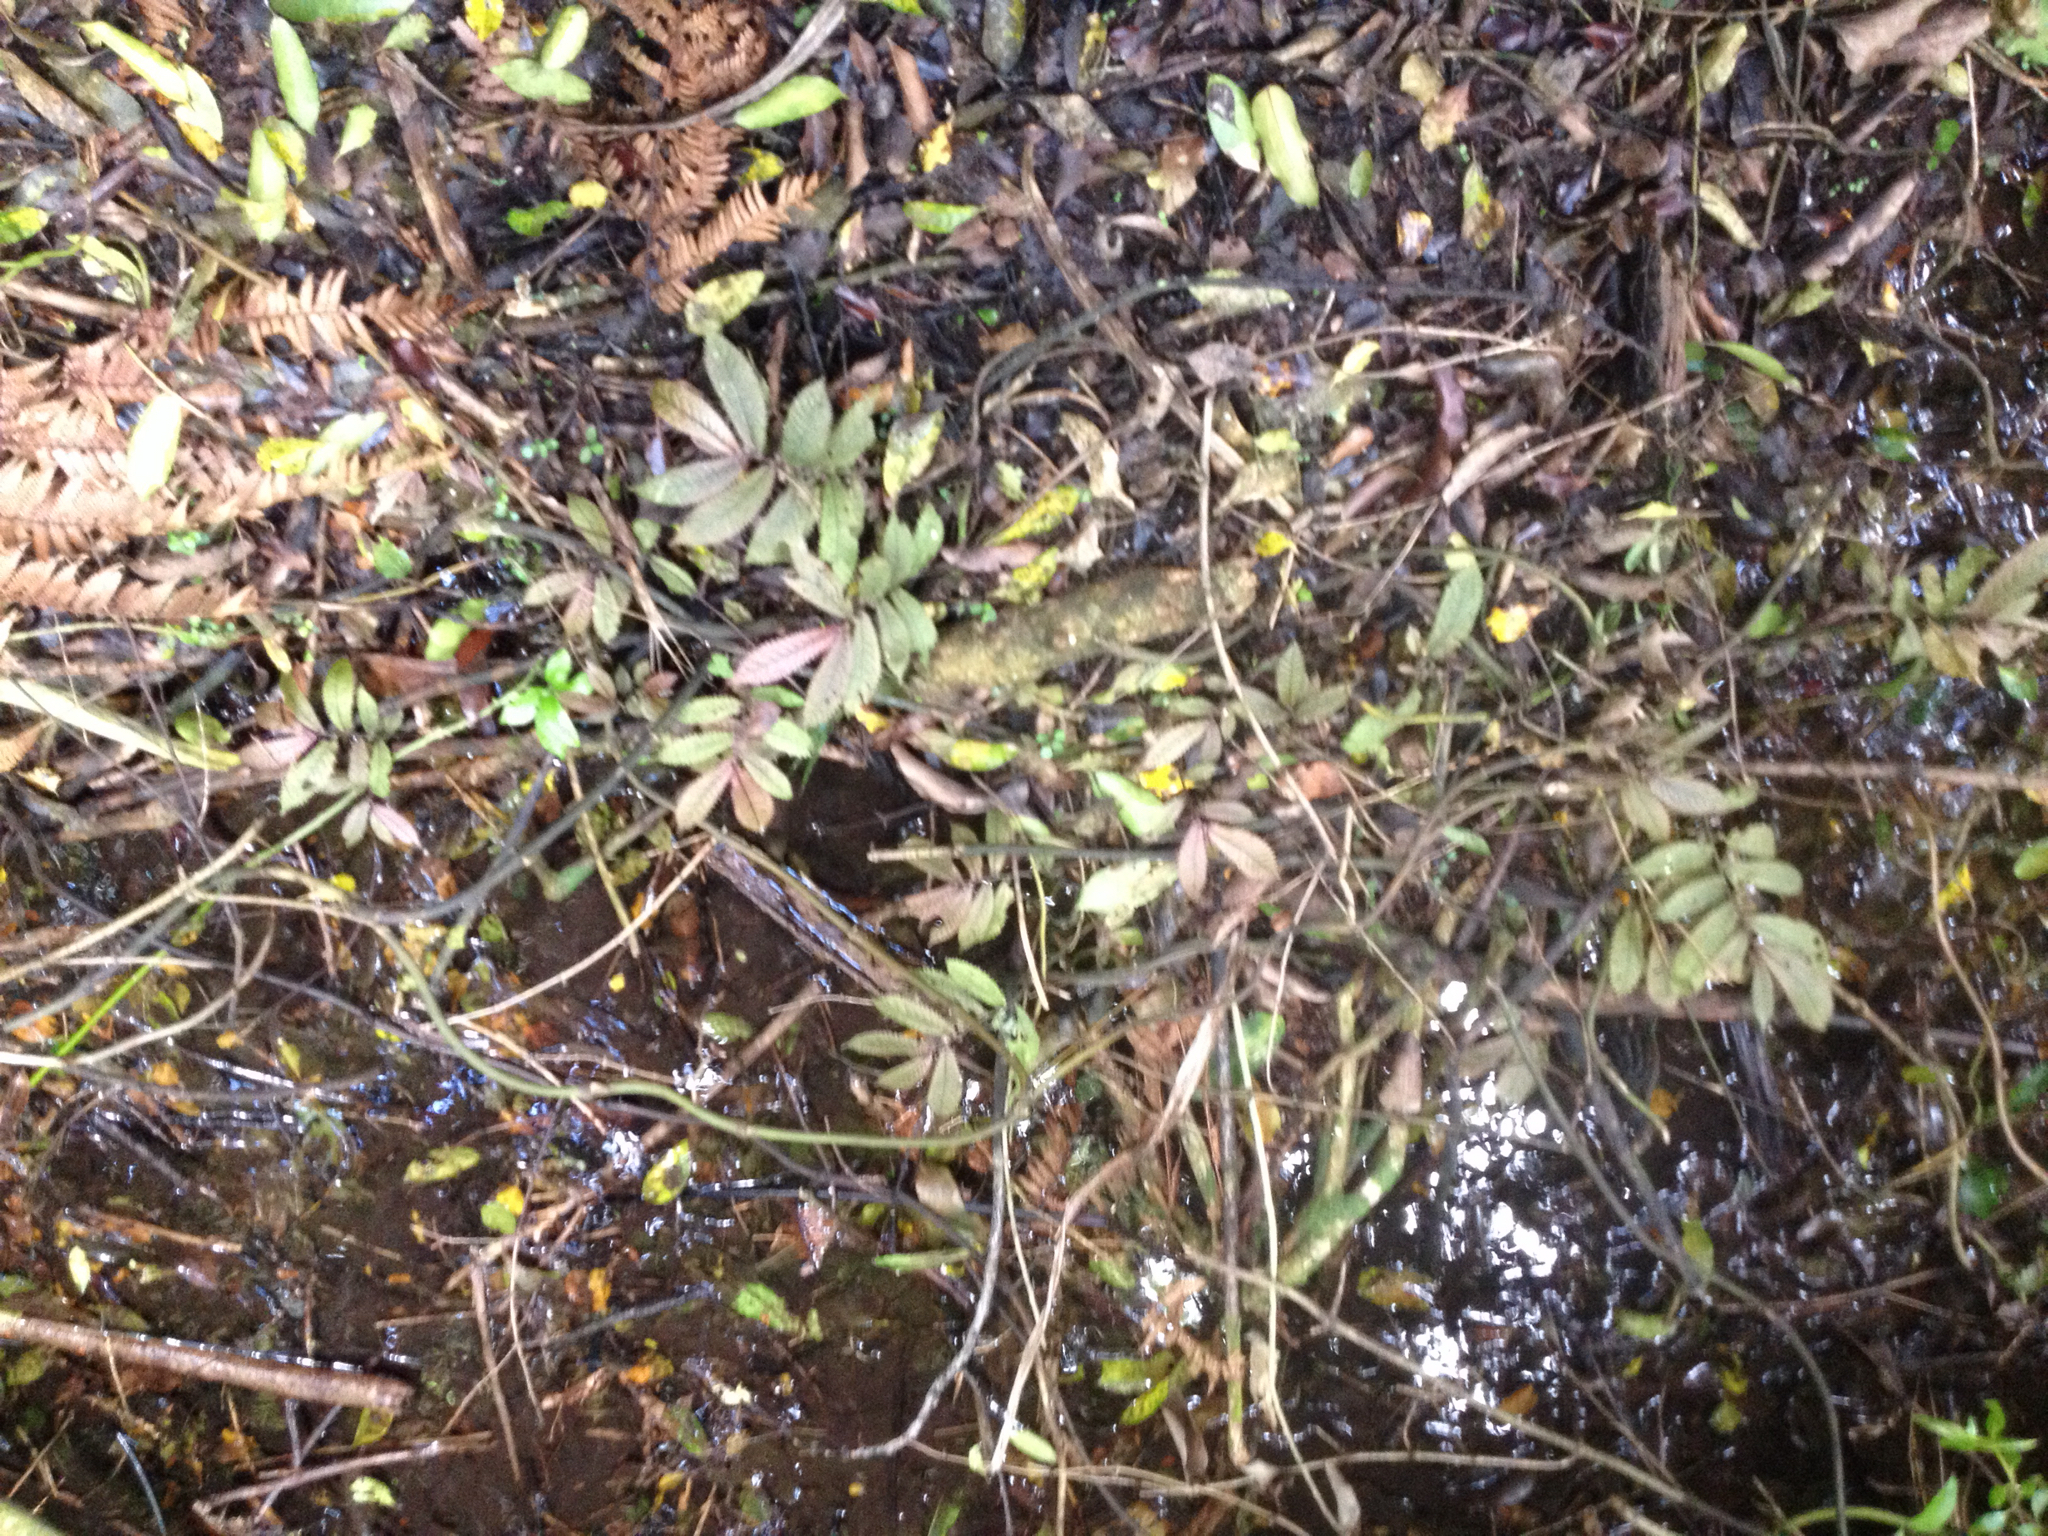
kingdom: Plantae
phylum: Tracheophyta
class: Magnoliopsida
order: Rosales
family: Urticaceae
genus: Elatostema
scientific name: Elatostema rugosum
